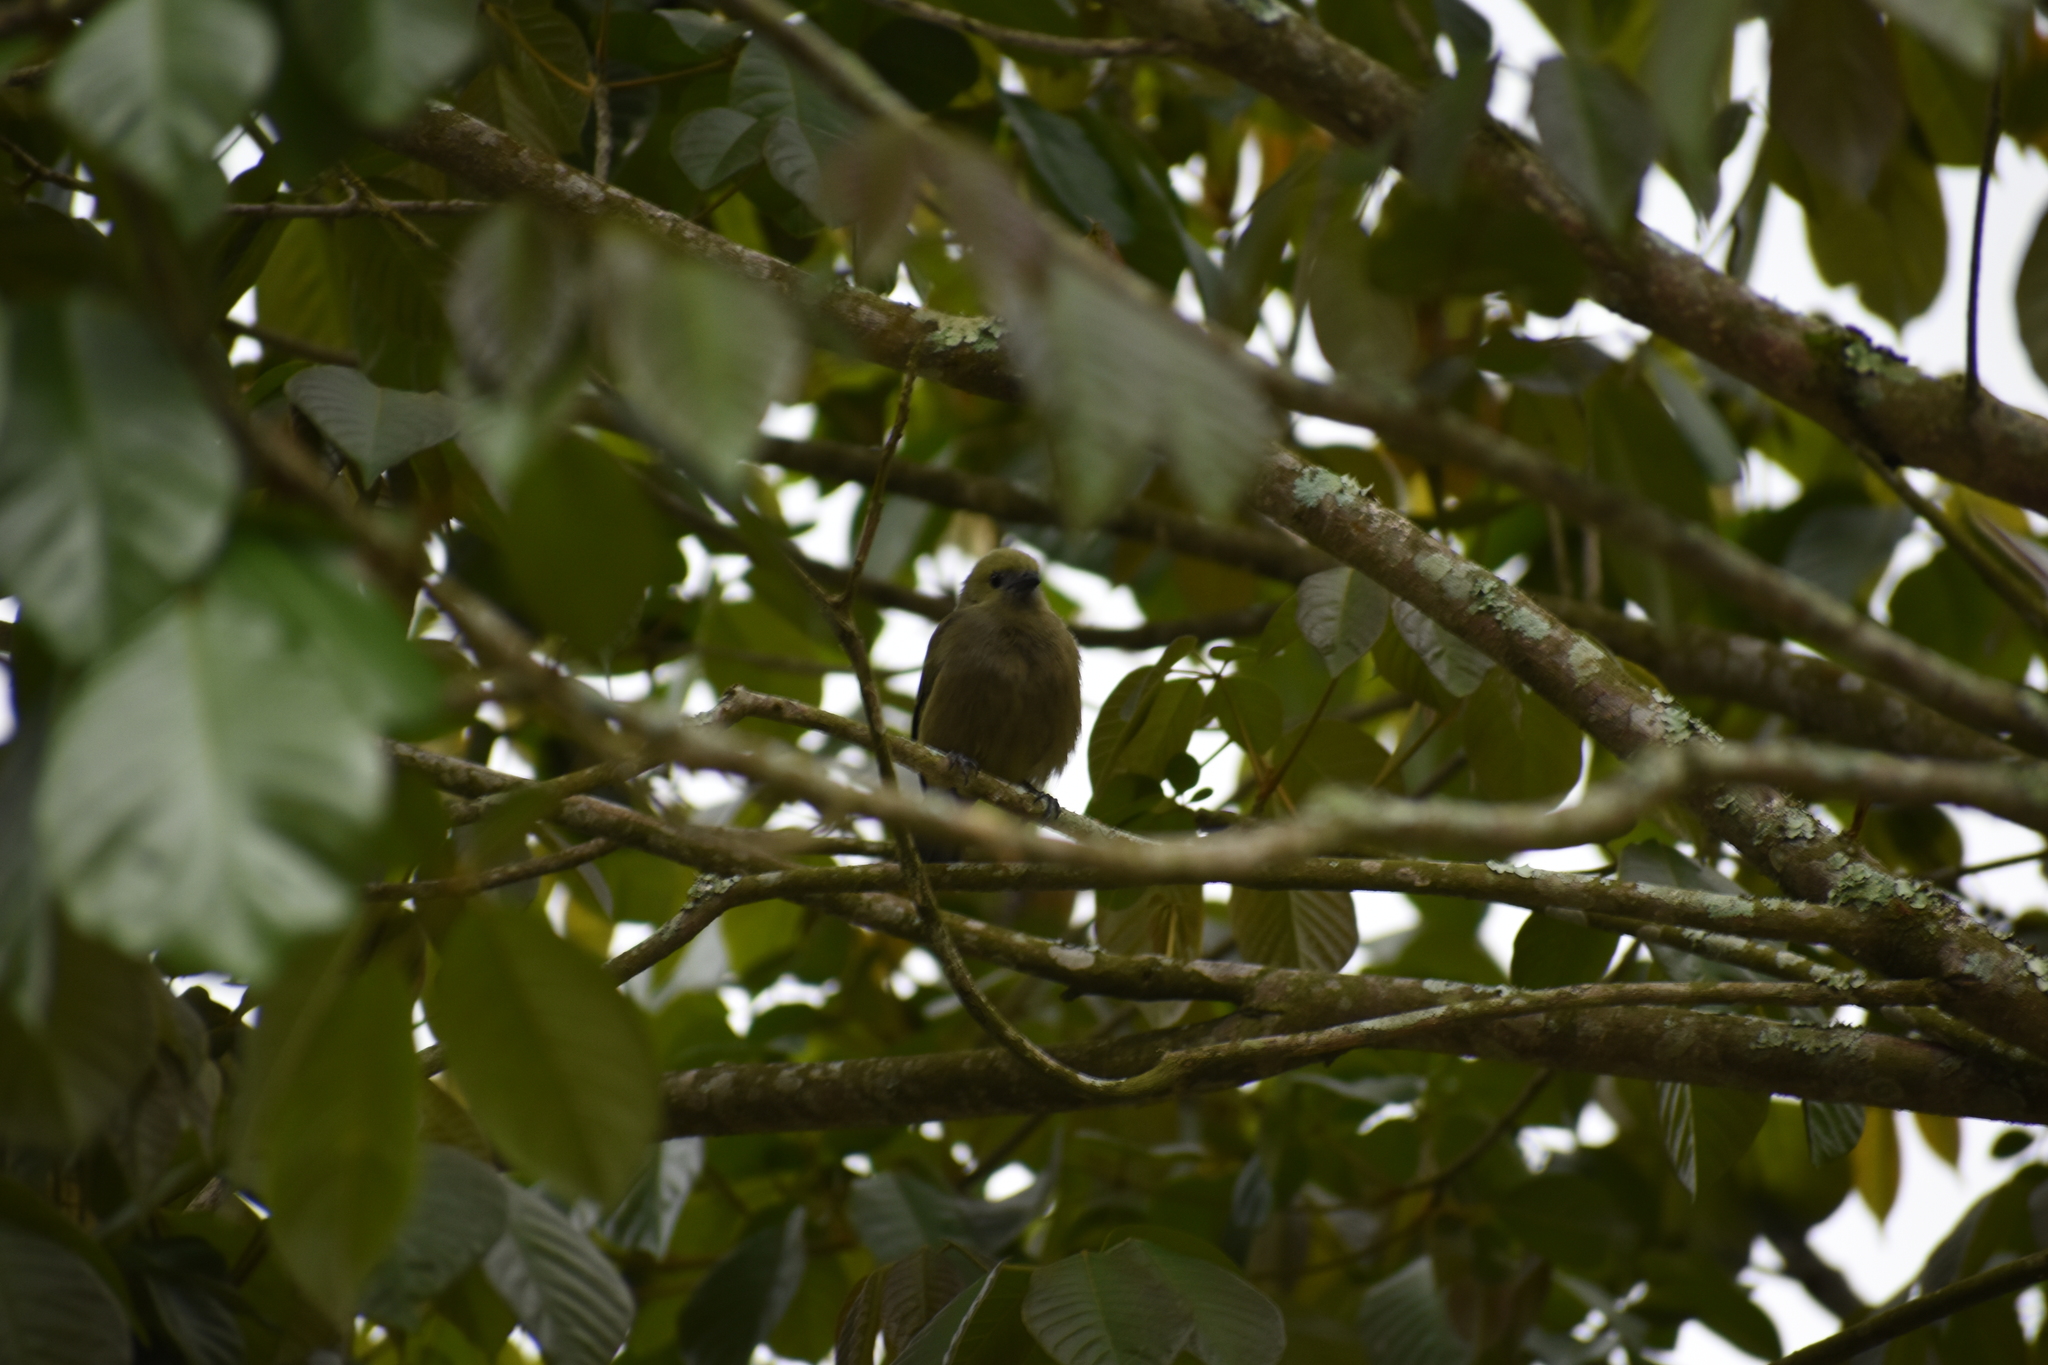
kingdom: Animalia
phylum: Chordata
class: Aves
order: Passeriformes
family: Thraupidae
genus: Thraupis
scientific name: Thraupis palmarum
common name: Palm tanager
